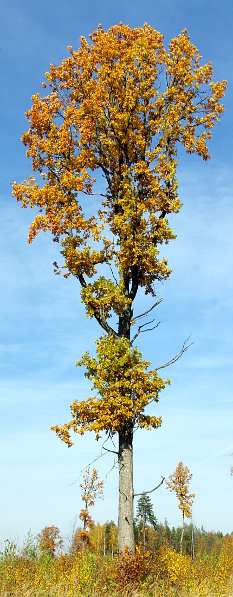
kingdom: Plantae
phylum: Tracheophyta
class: Magnoliopsida
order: Fagales
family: Fagaceae
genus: Quercus
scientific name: Quercus robur
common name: Pedunculate oak
